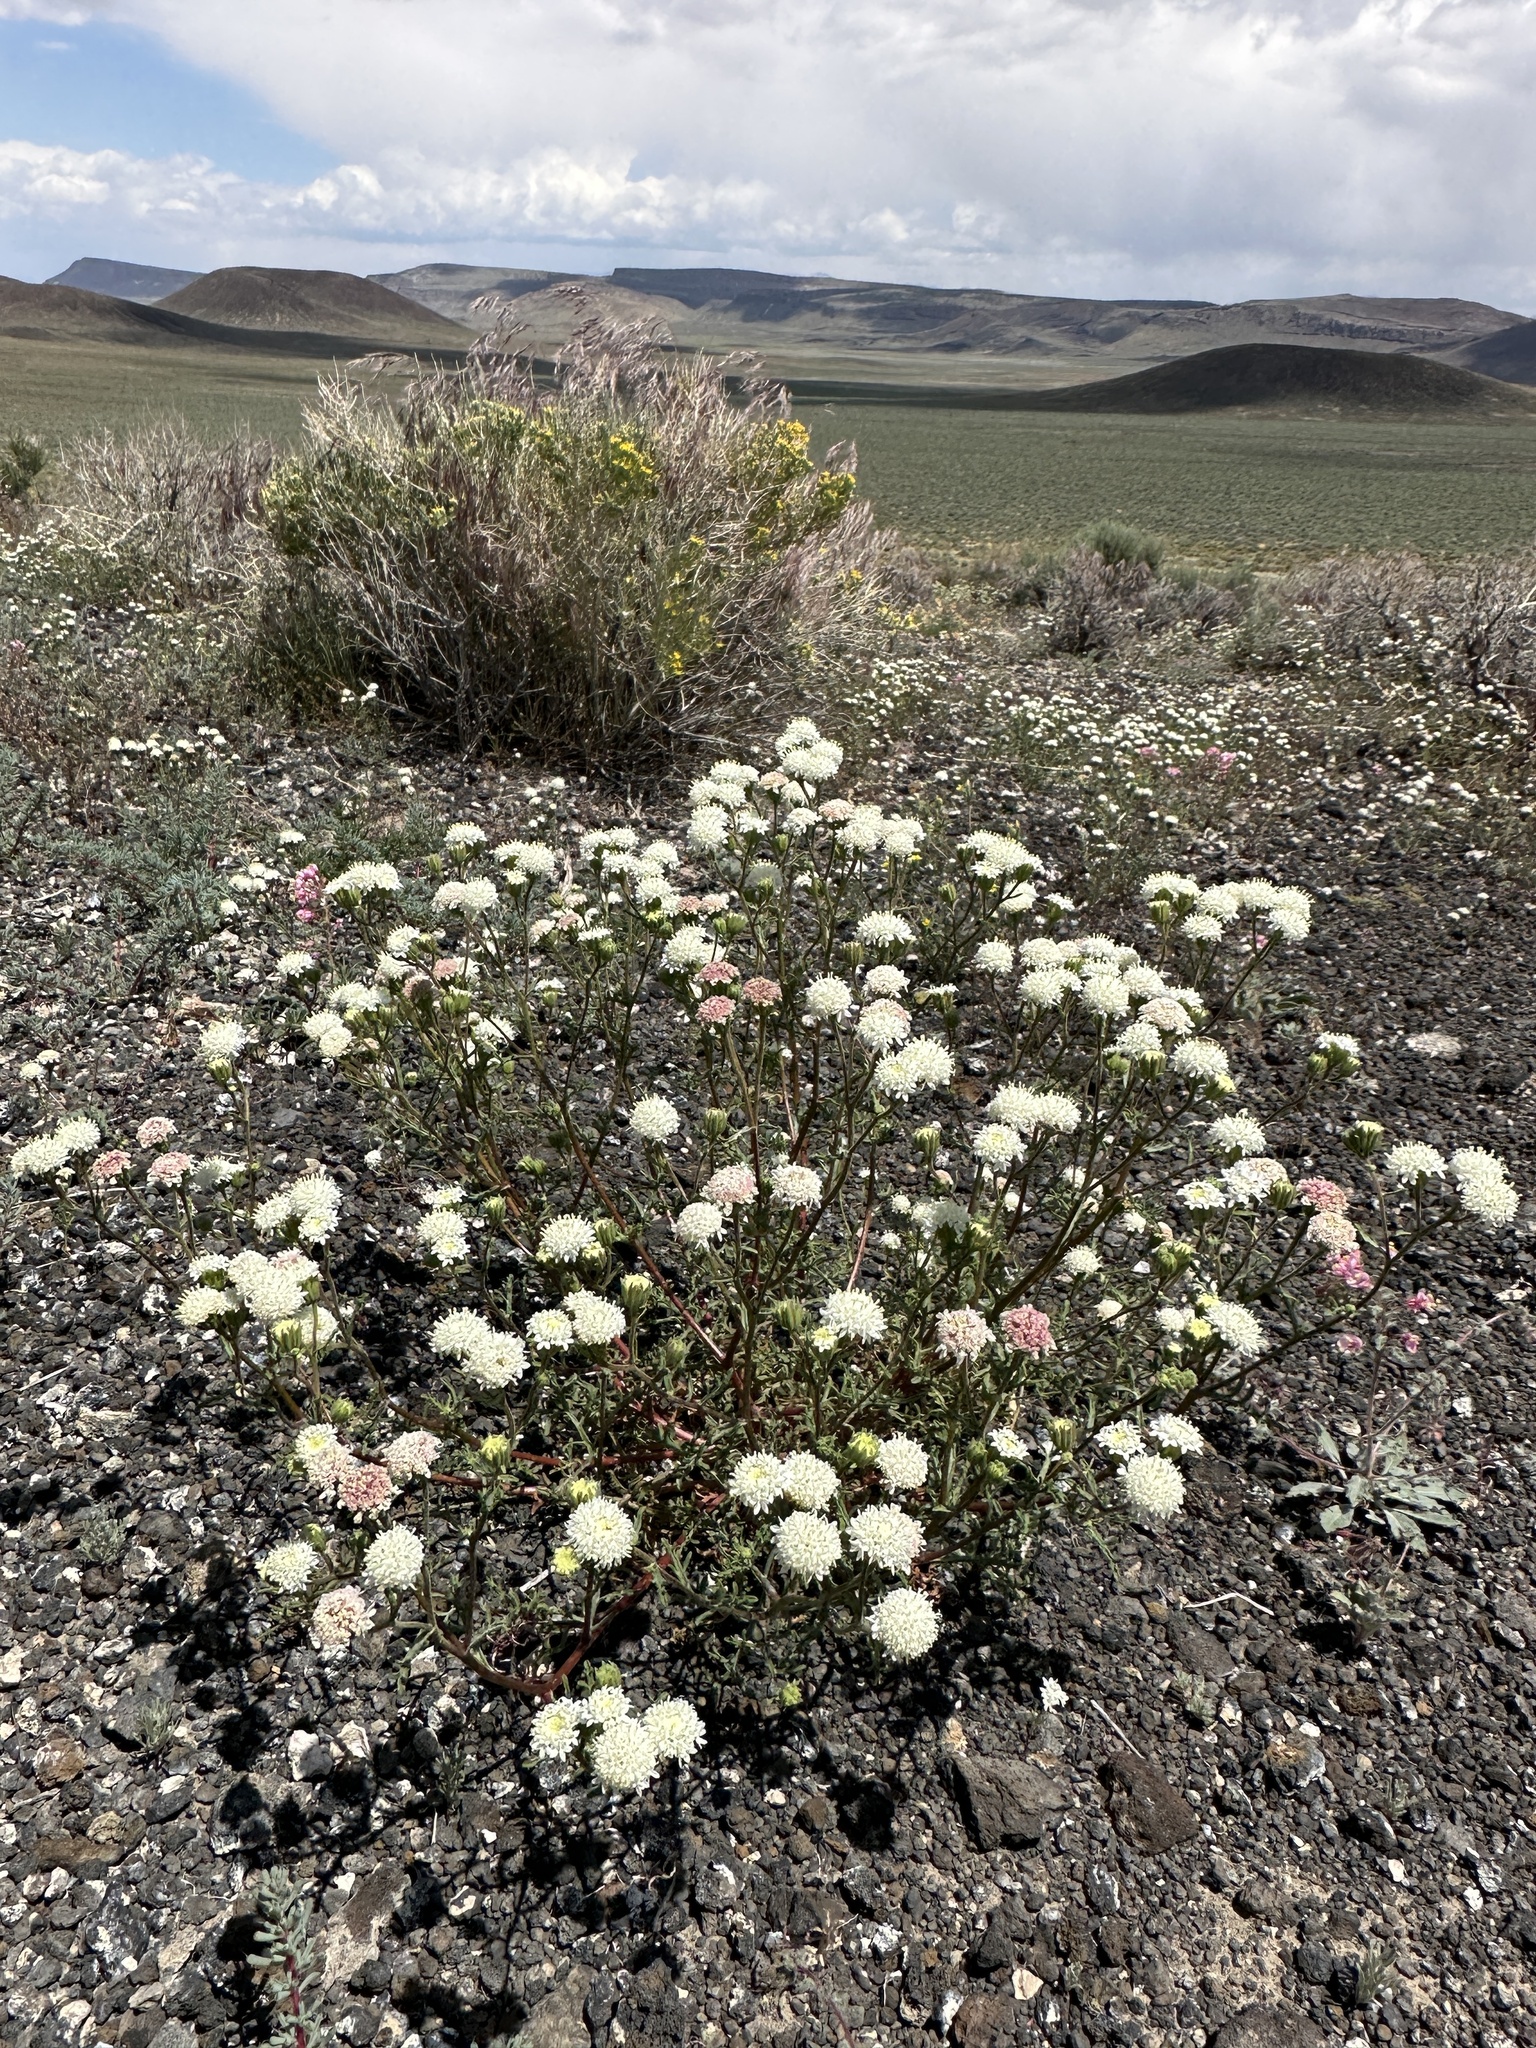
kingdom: Plantae
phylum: Tracheophyta
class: Magnoliopsida
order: Asterales
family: Asteraceae
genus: Chaenactis
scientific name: Chaenactis stevioides
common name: Desert pincushion
